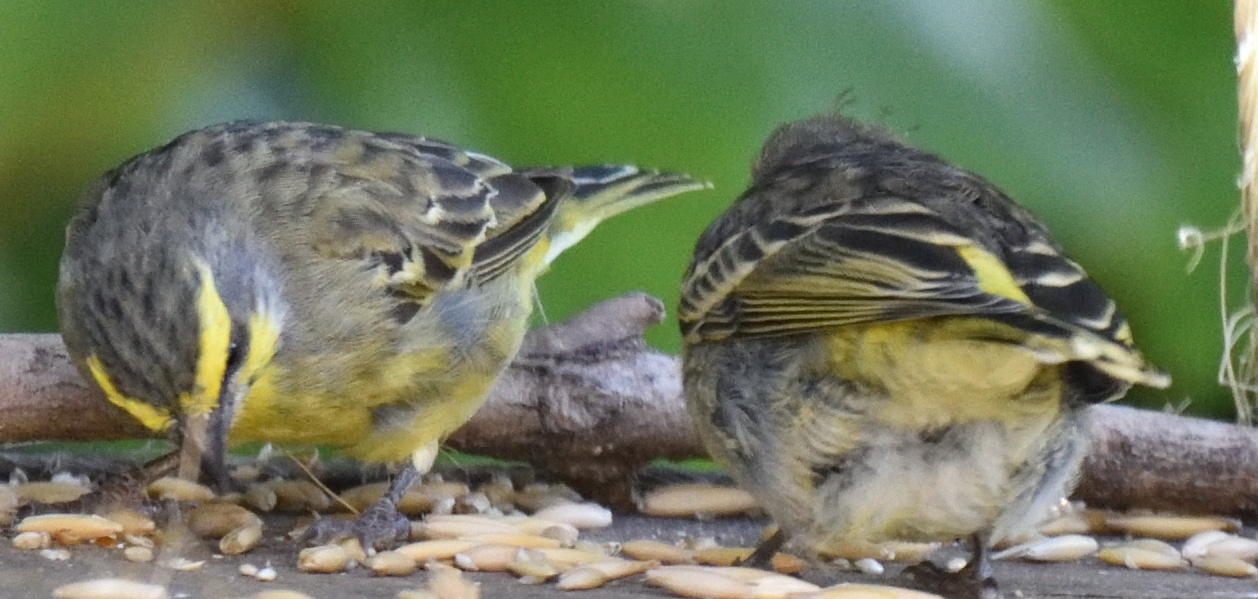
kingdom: Animalia
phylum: Chordata
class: Aves
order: Passeriformes
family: Fringillidae
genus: Crithagra
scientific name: Crithagra mozambica
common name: Yellow-fronted canary
